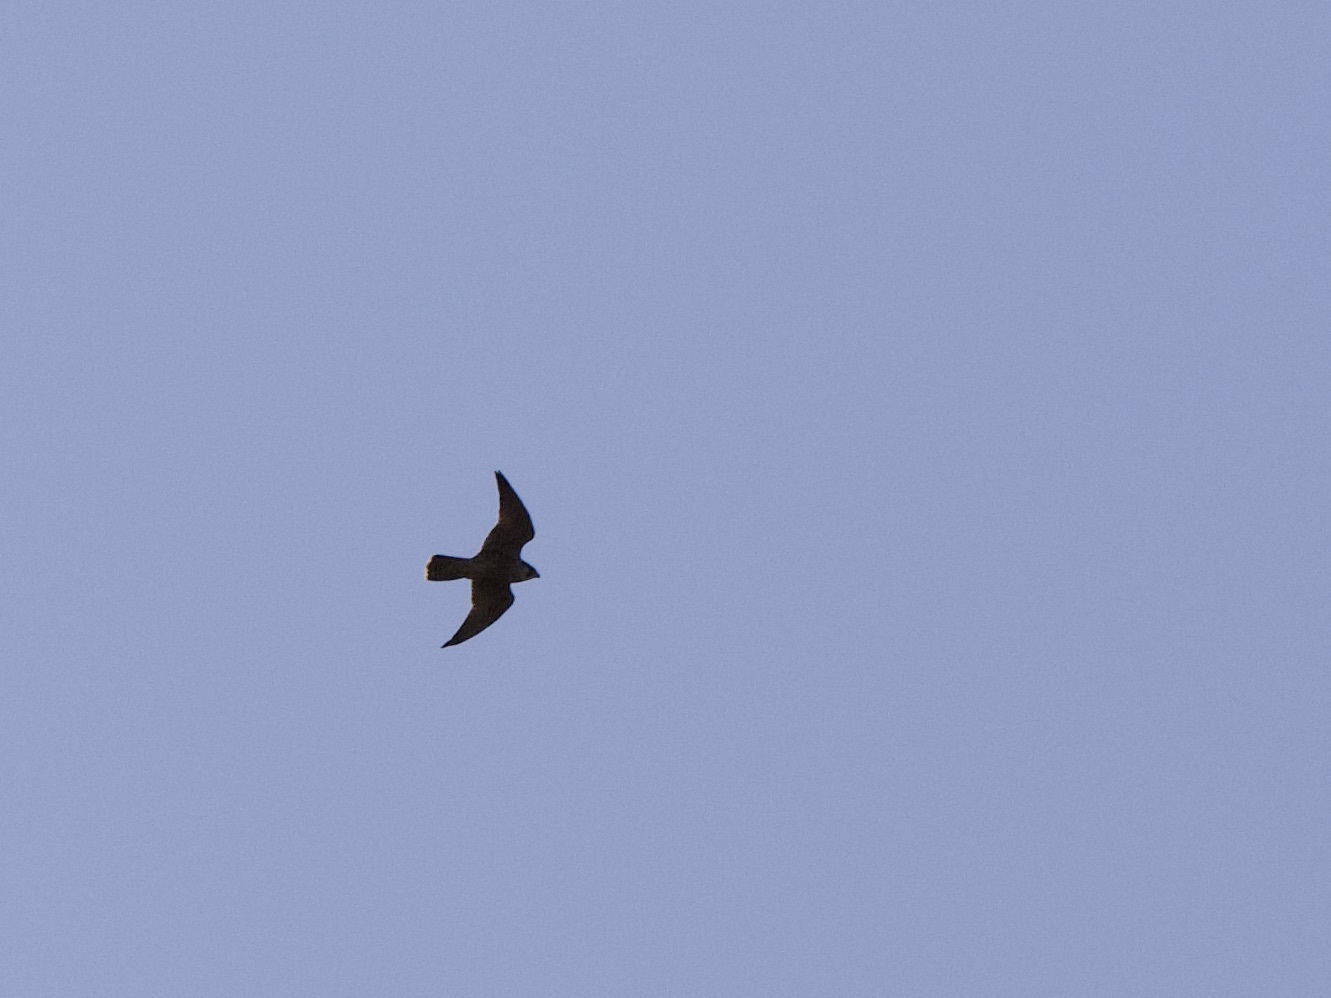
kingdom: Animalia
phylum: Chordata
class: Aves
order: Falconiformes
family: Falconidae
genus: Falco
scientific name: Falco peregrinus
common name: Peregrine falcon
